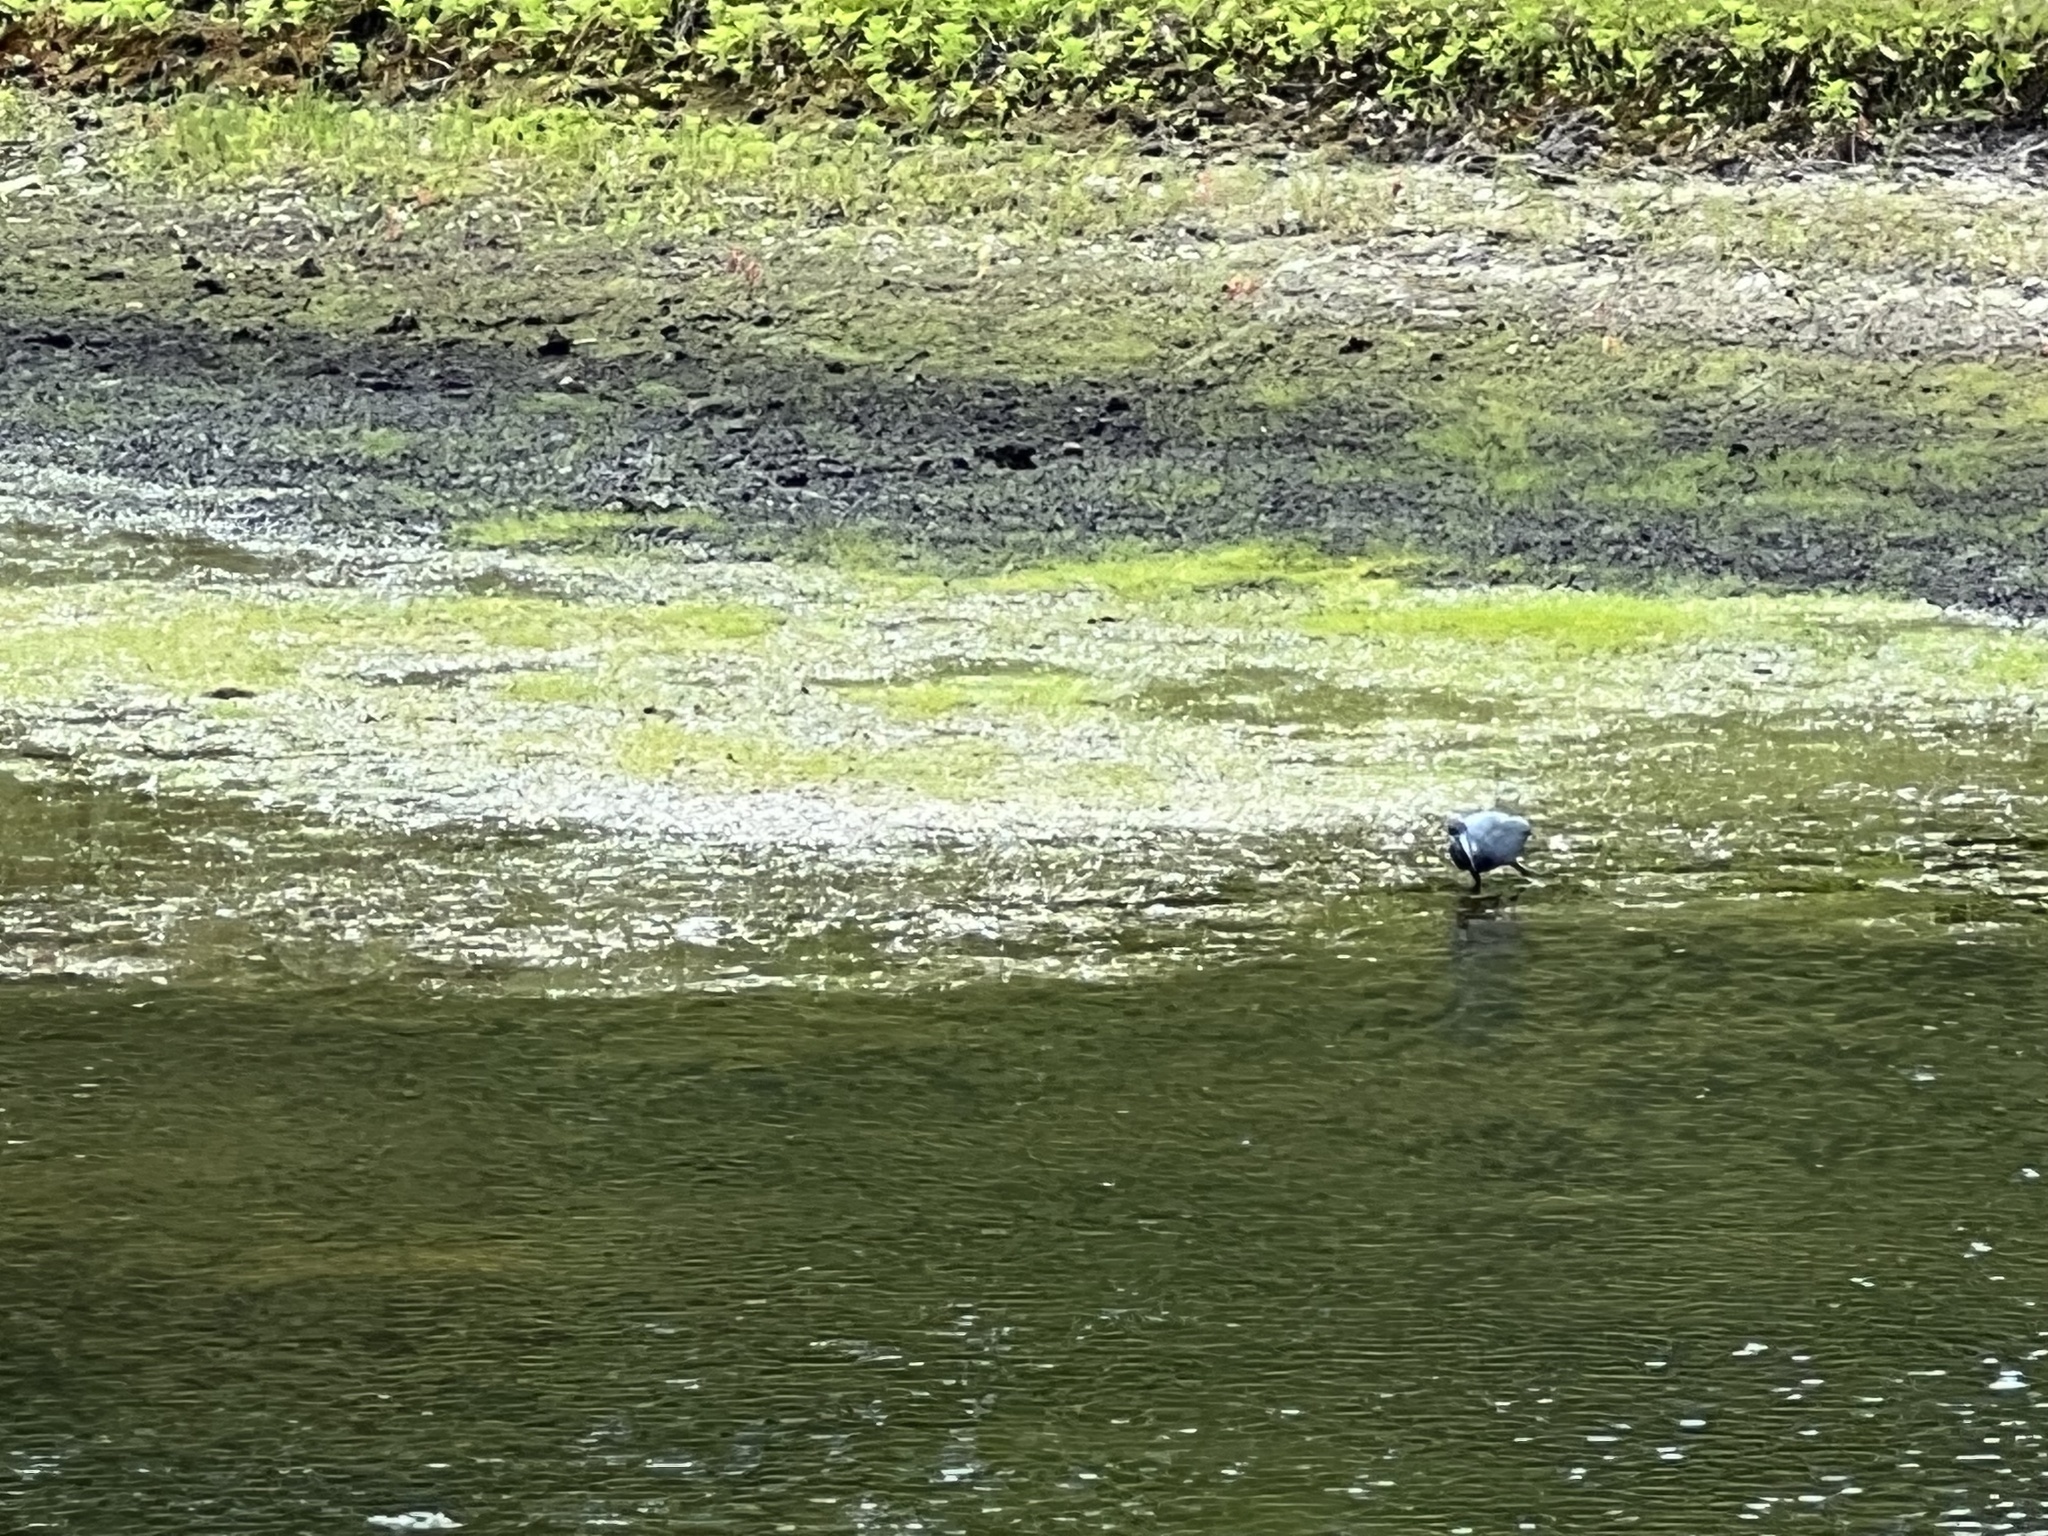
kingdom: Animalia
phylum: Chordata
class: Aves
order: Pelecaniformes
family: Ardeidae
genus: Egretta
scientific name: Egretta caerulea
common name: Little blue heron
